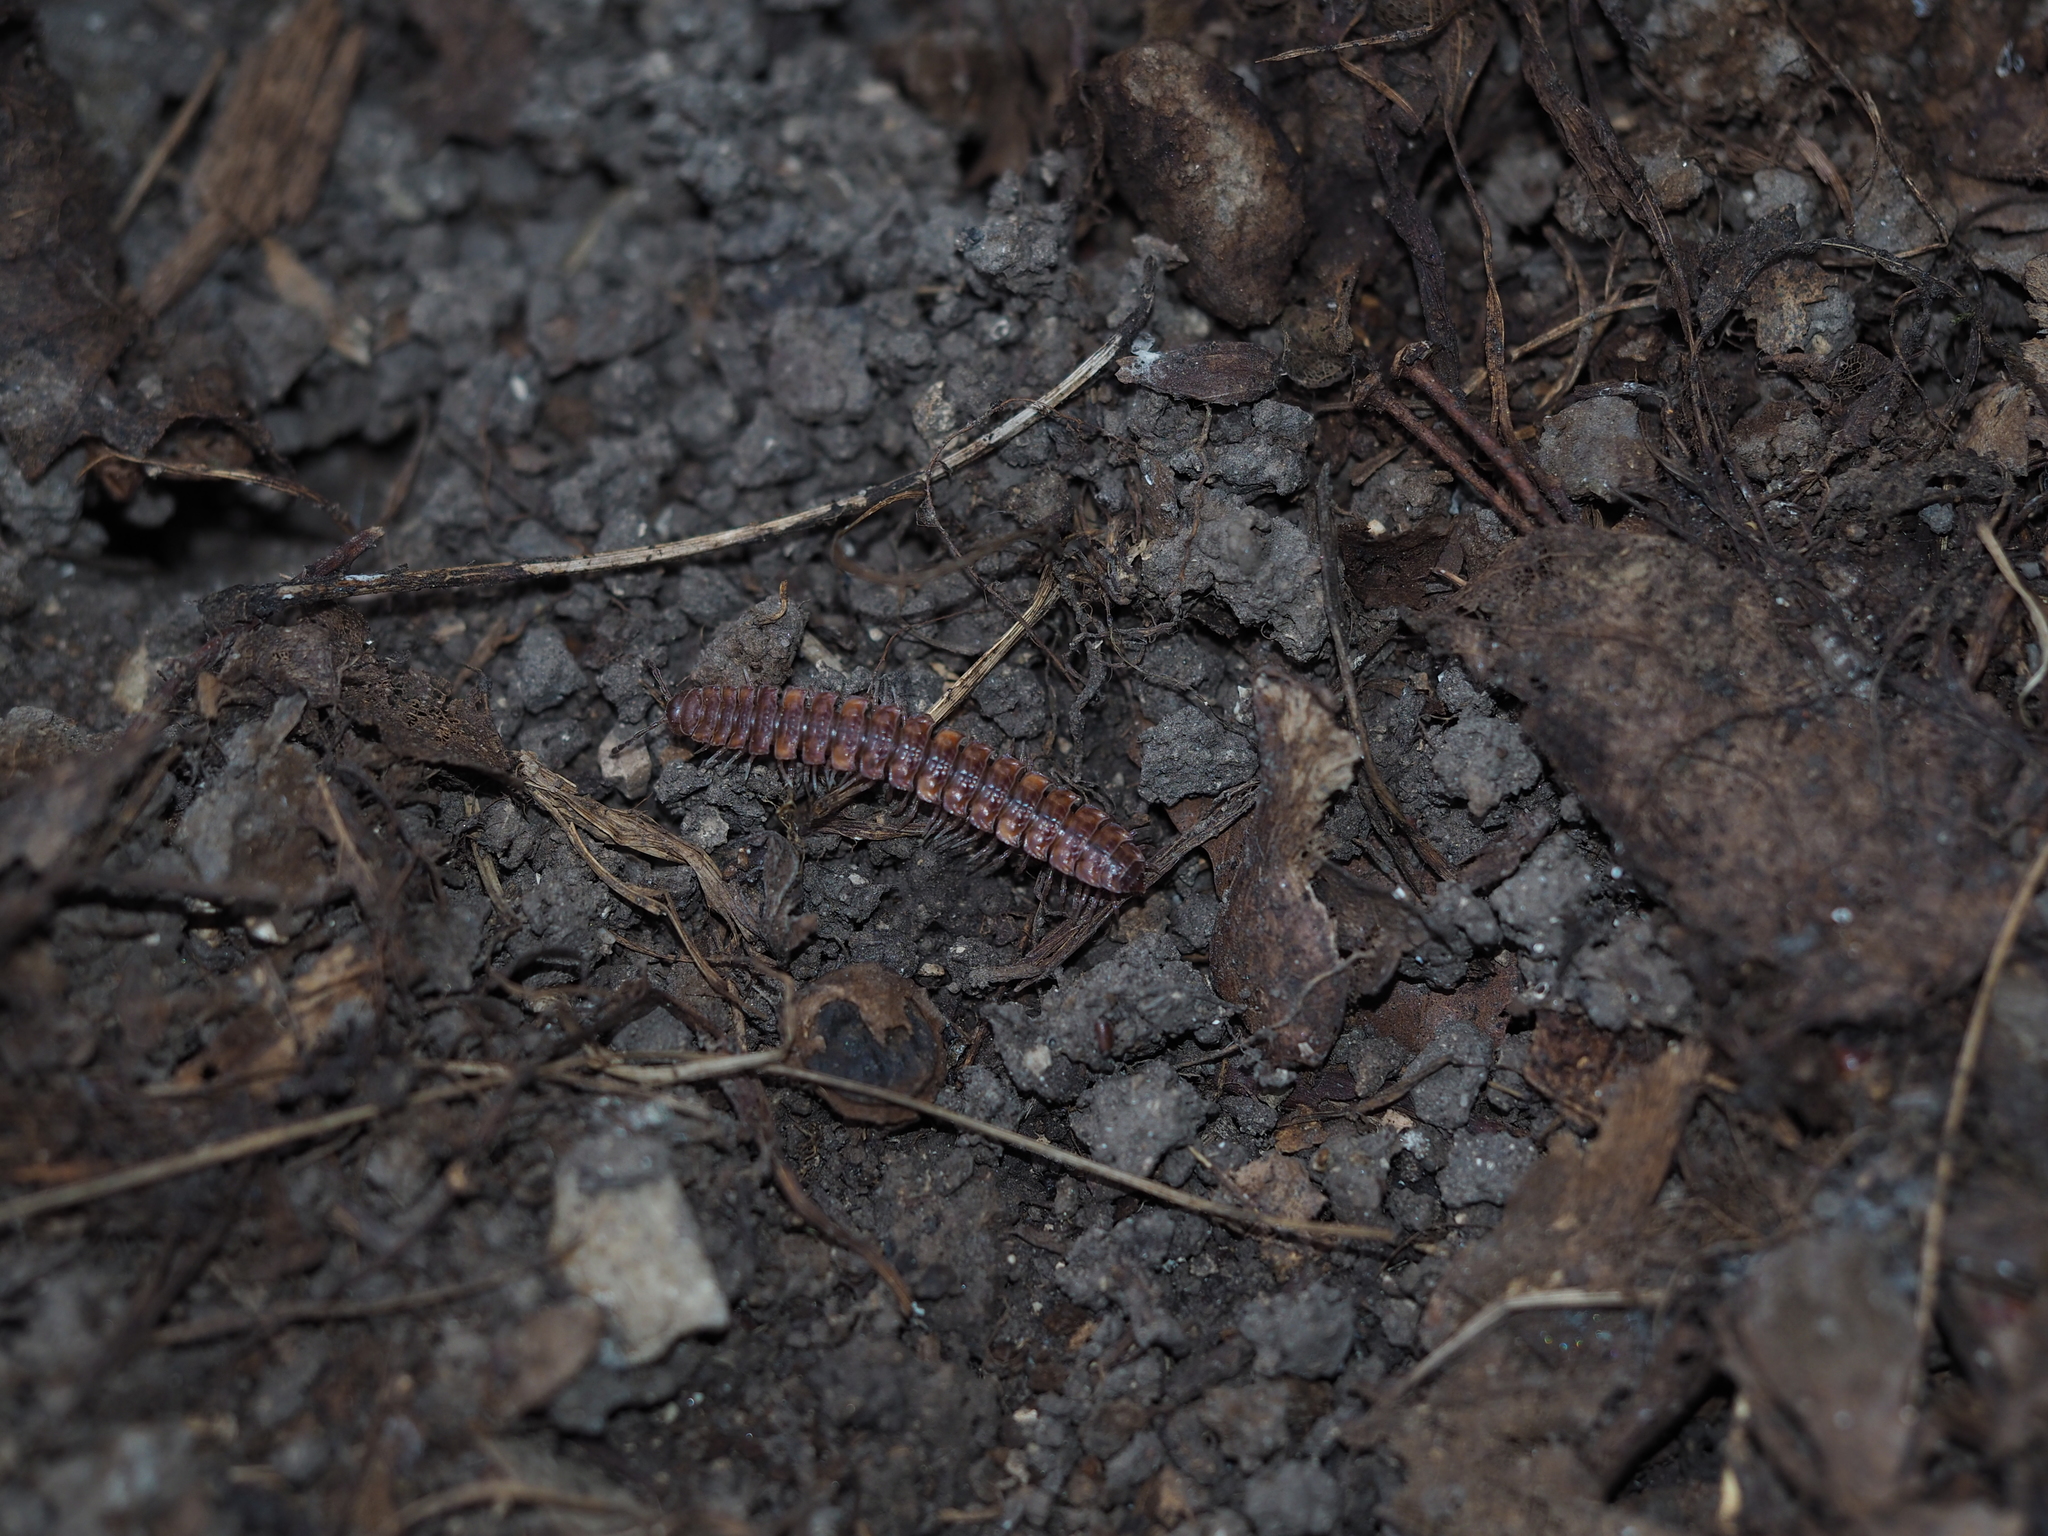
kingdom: Animalia
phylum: Arthropoda
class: Diplopoda
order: Polydesmida
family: Polydesmidae
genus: Polydesmus
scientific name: Polydesmus complanatus
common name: Flat-backed millipede
